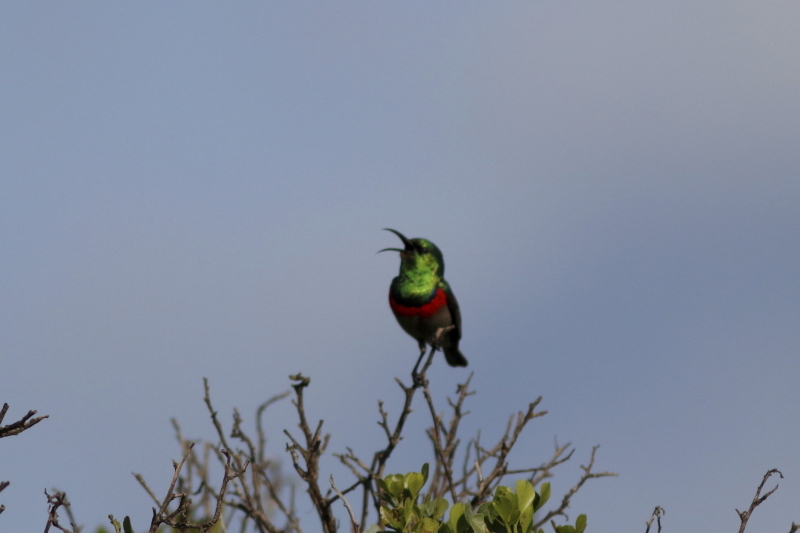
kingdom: Animalia
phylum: Chordata
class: Aves
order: Passeriformes
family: Nectariniidae
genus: Cinnyris
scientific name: Cinnyris chalybeus
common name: Southern double-collared sunbird
